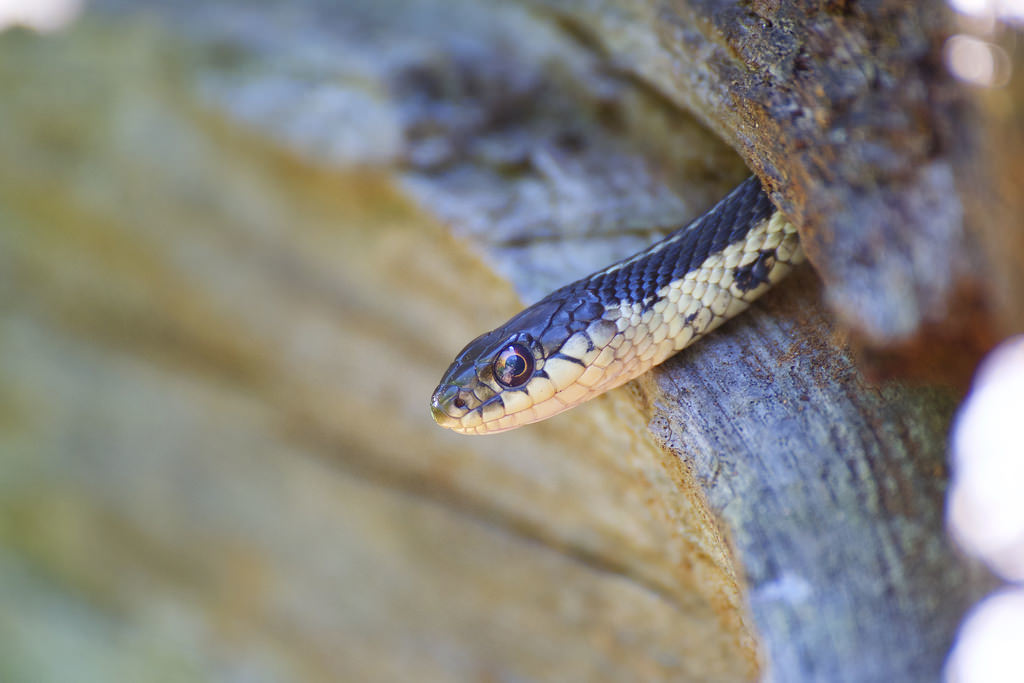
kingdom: Animalia
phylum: Chordata
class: Squamata
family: Colubridae
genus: Thamnophis
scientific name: Thamnophis sirtalis
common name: Common garter snake
